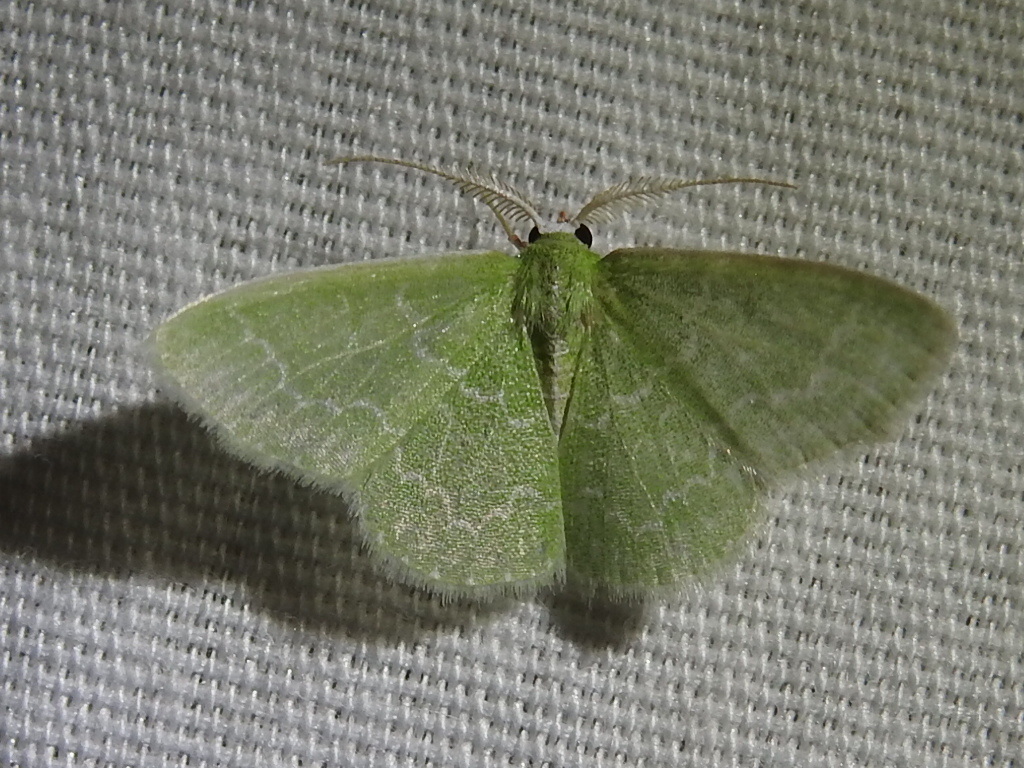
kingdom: Animalia
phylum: Arthropoda
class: Insecta
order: Lepidoptera
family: Geometridae
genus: Synchlora
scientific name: Synchlora frondaria
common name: Southern emerald
